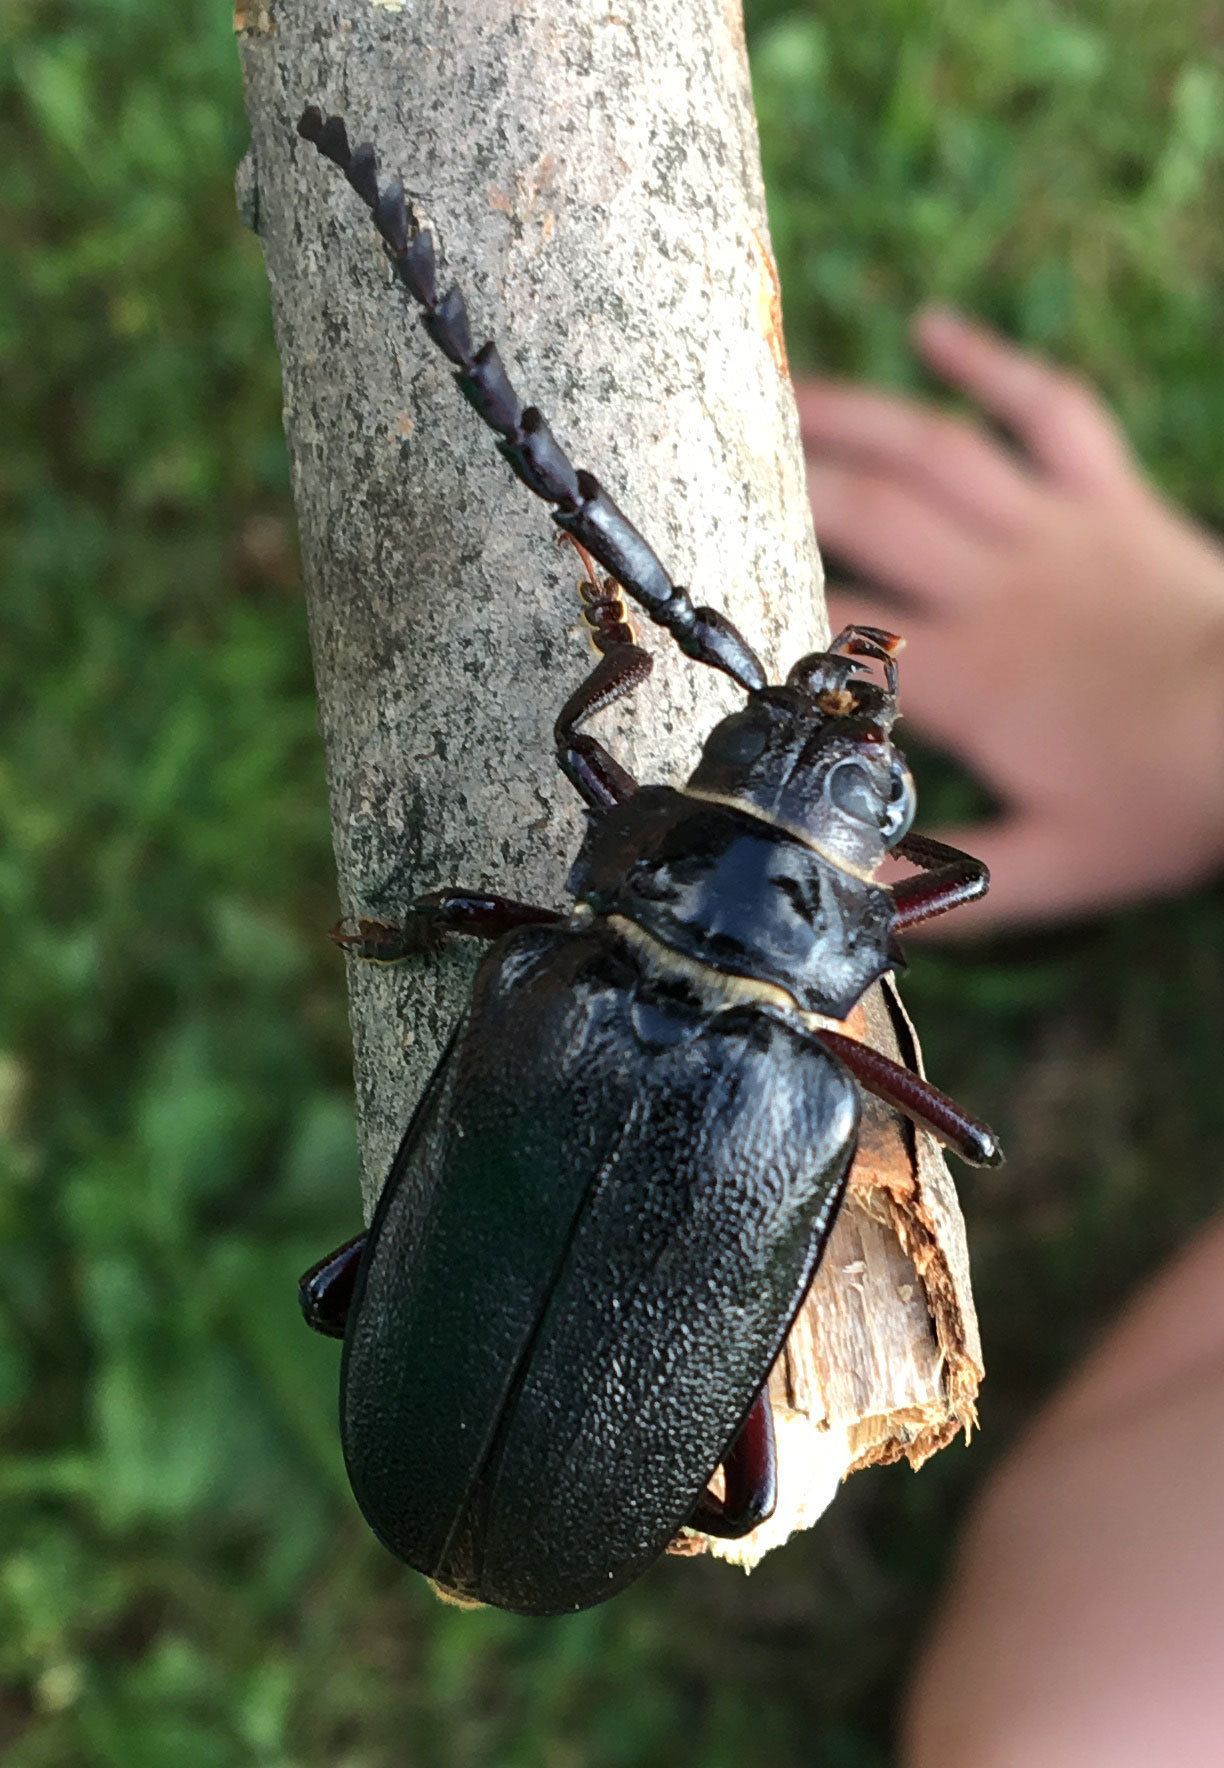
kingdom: Animalia
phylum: Arthropoda
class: Insecta
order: Coleoptera
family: Cerambycidae
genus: Prionus
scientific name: Prionus laticollis
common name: Broad necked prionus
